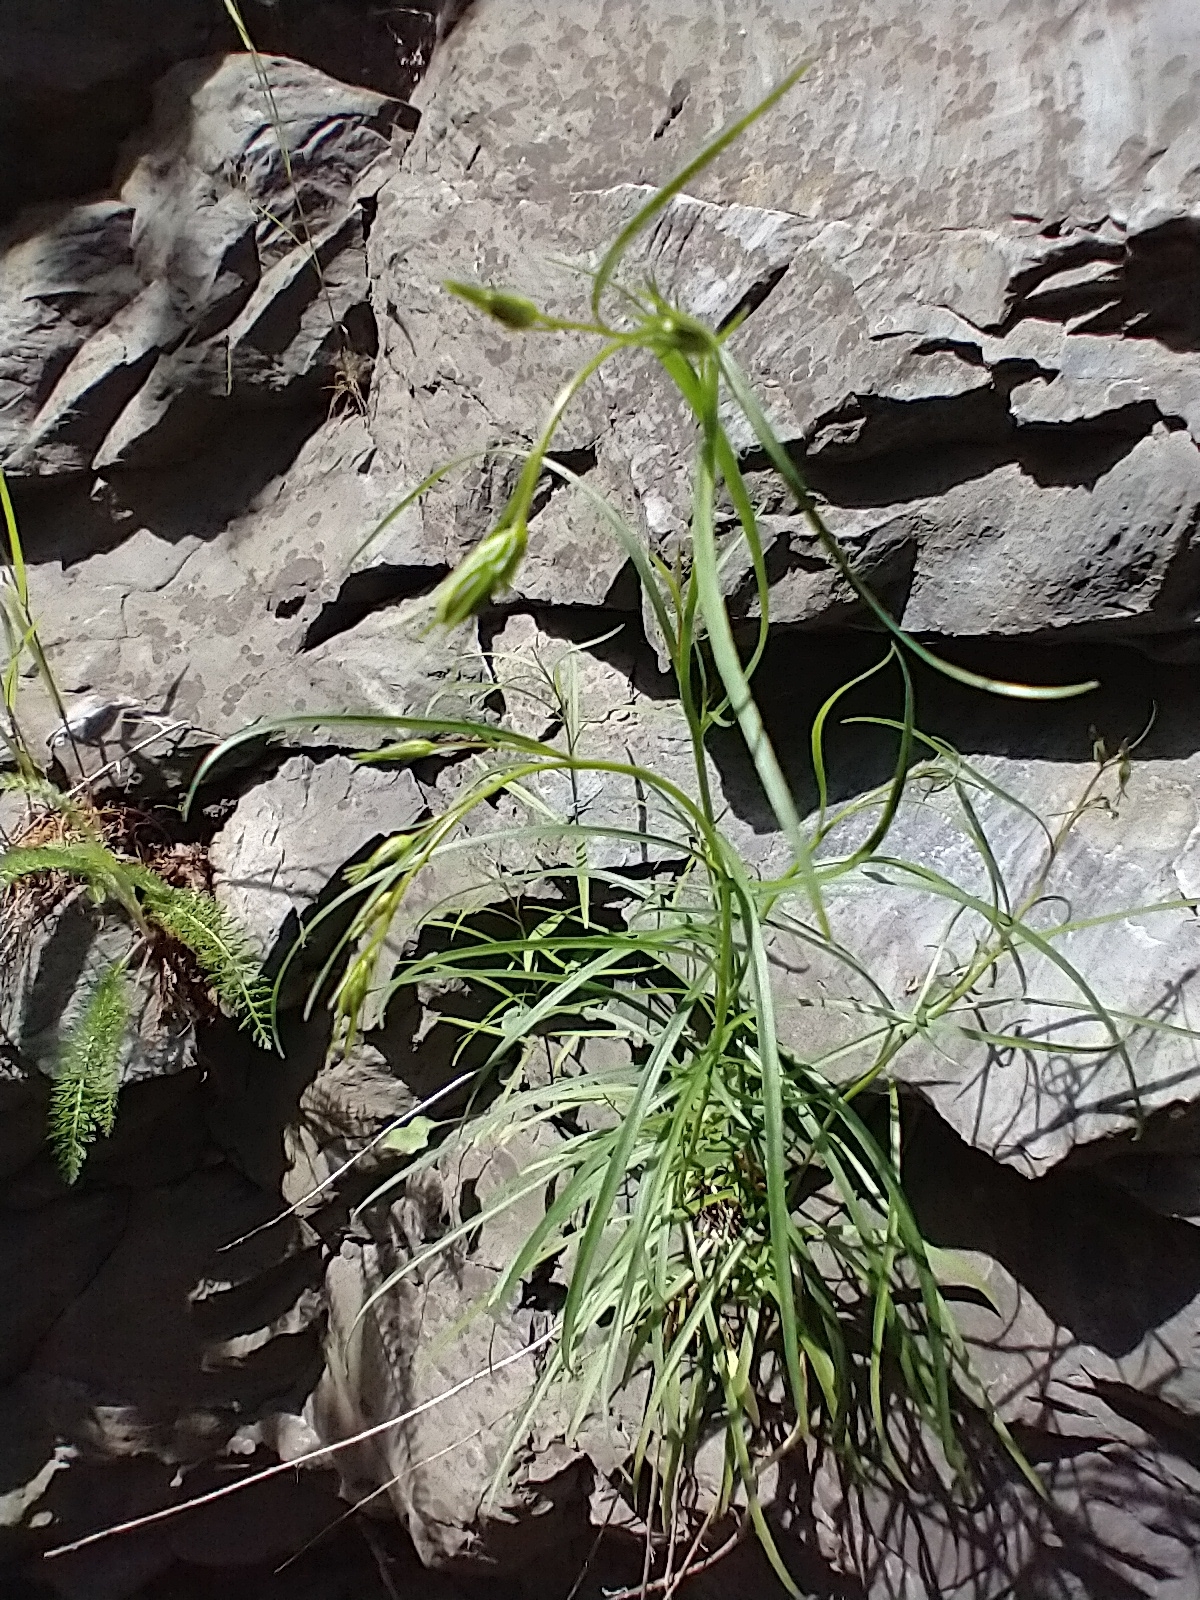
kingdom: Plantae
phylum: Tracheophyta
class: Magnoliopsida
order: Asterales
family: Campanulaceae
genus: Campanula
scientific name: Campanula intercedens
